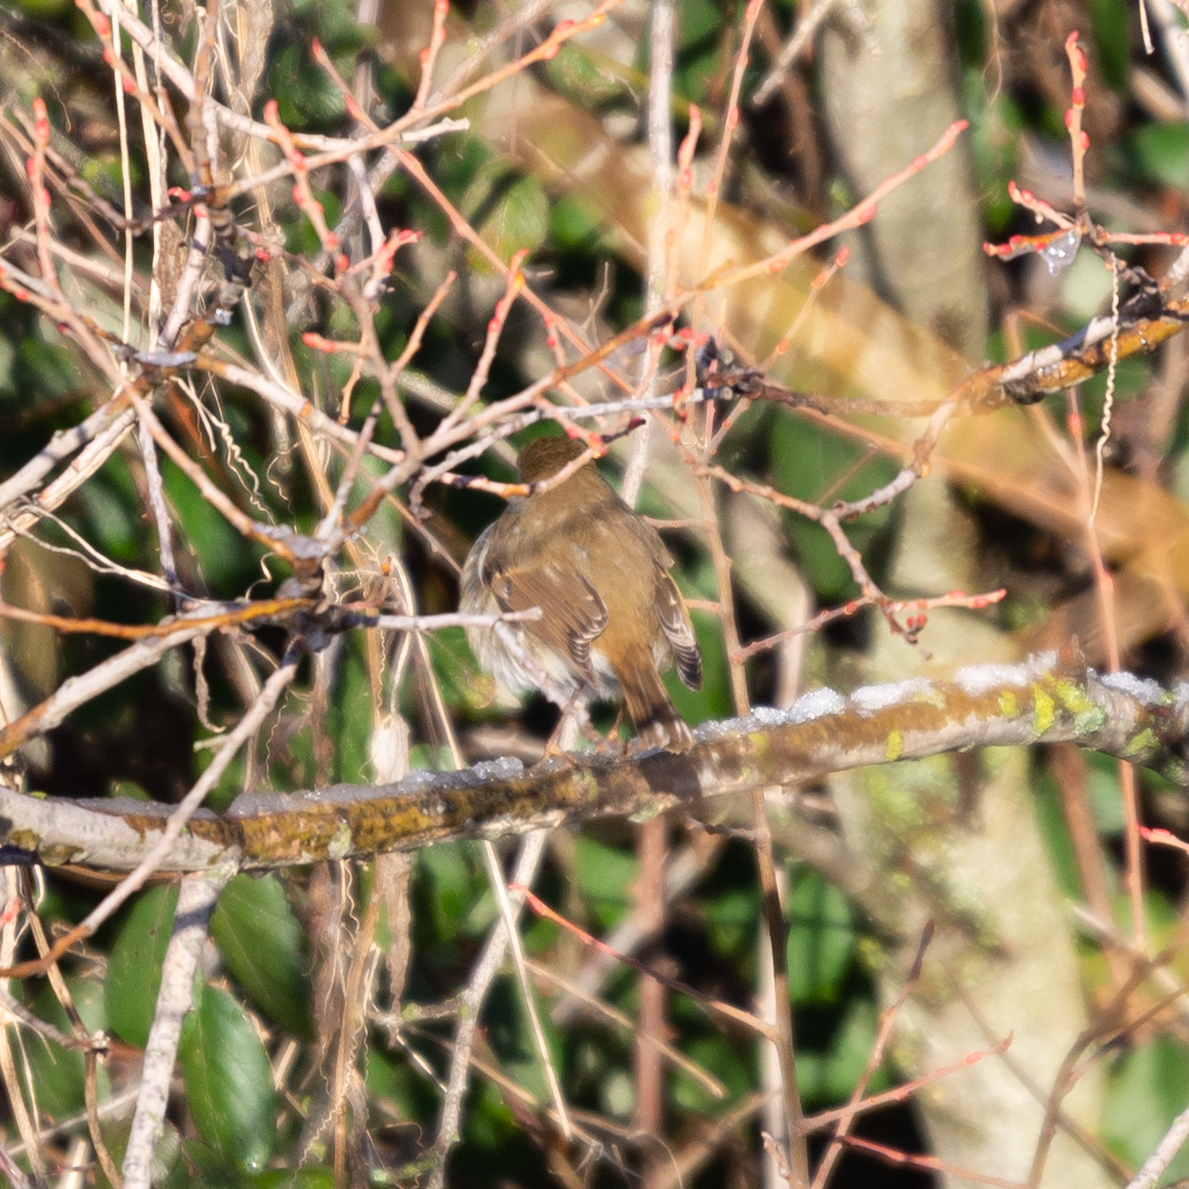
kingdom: Animalia
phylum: Chordata
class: Aves
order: Passeriformes
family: Muscicapidae
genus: Erithacus
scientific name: Erithacus rubecula
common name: European robin
